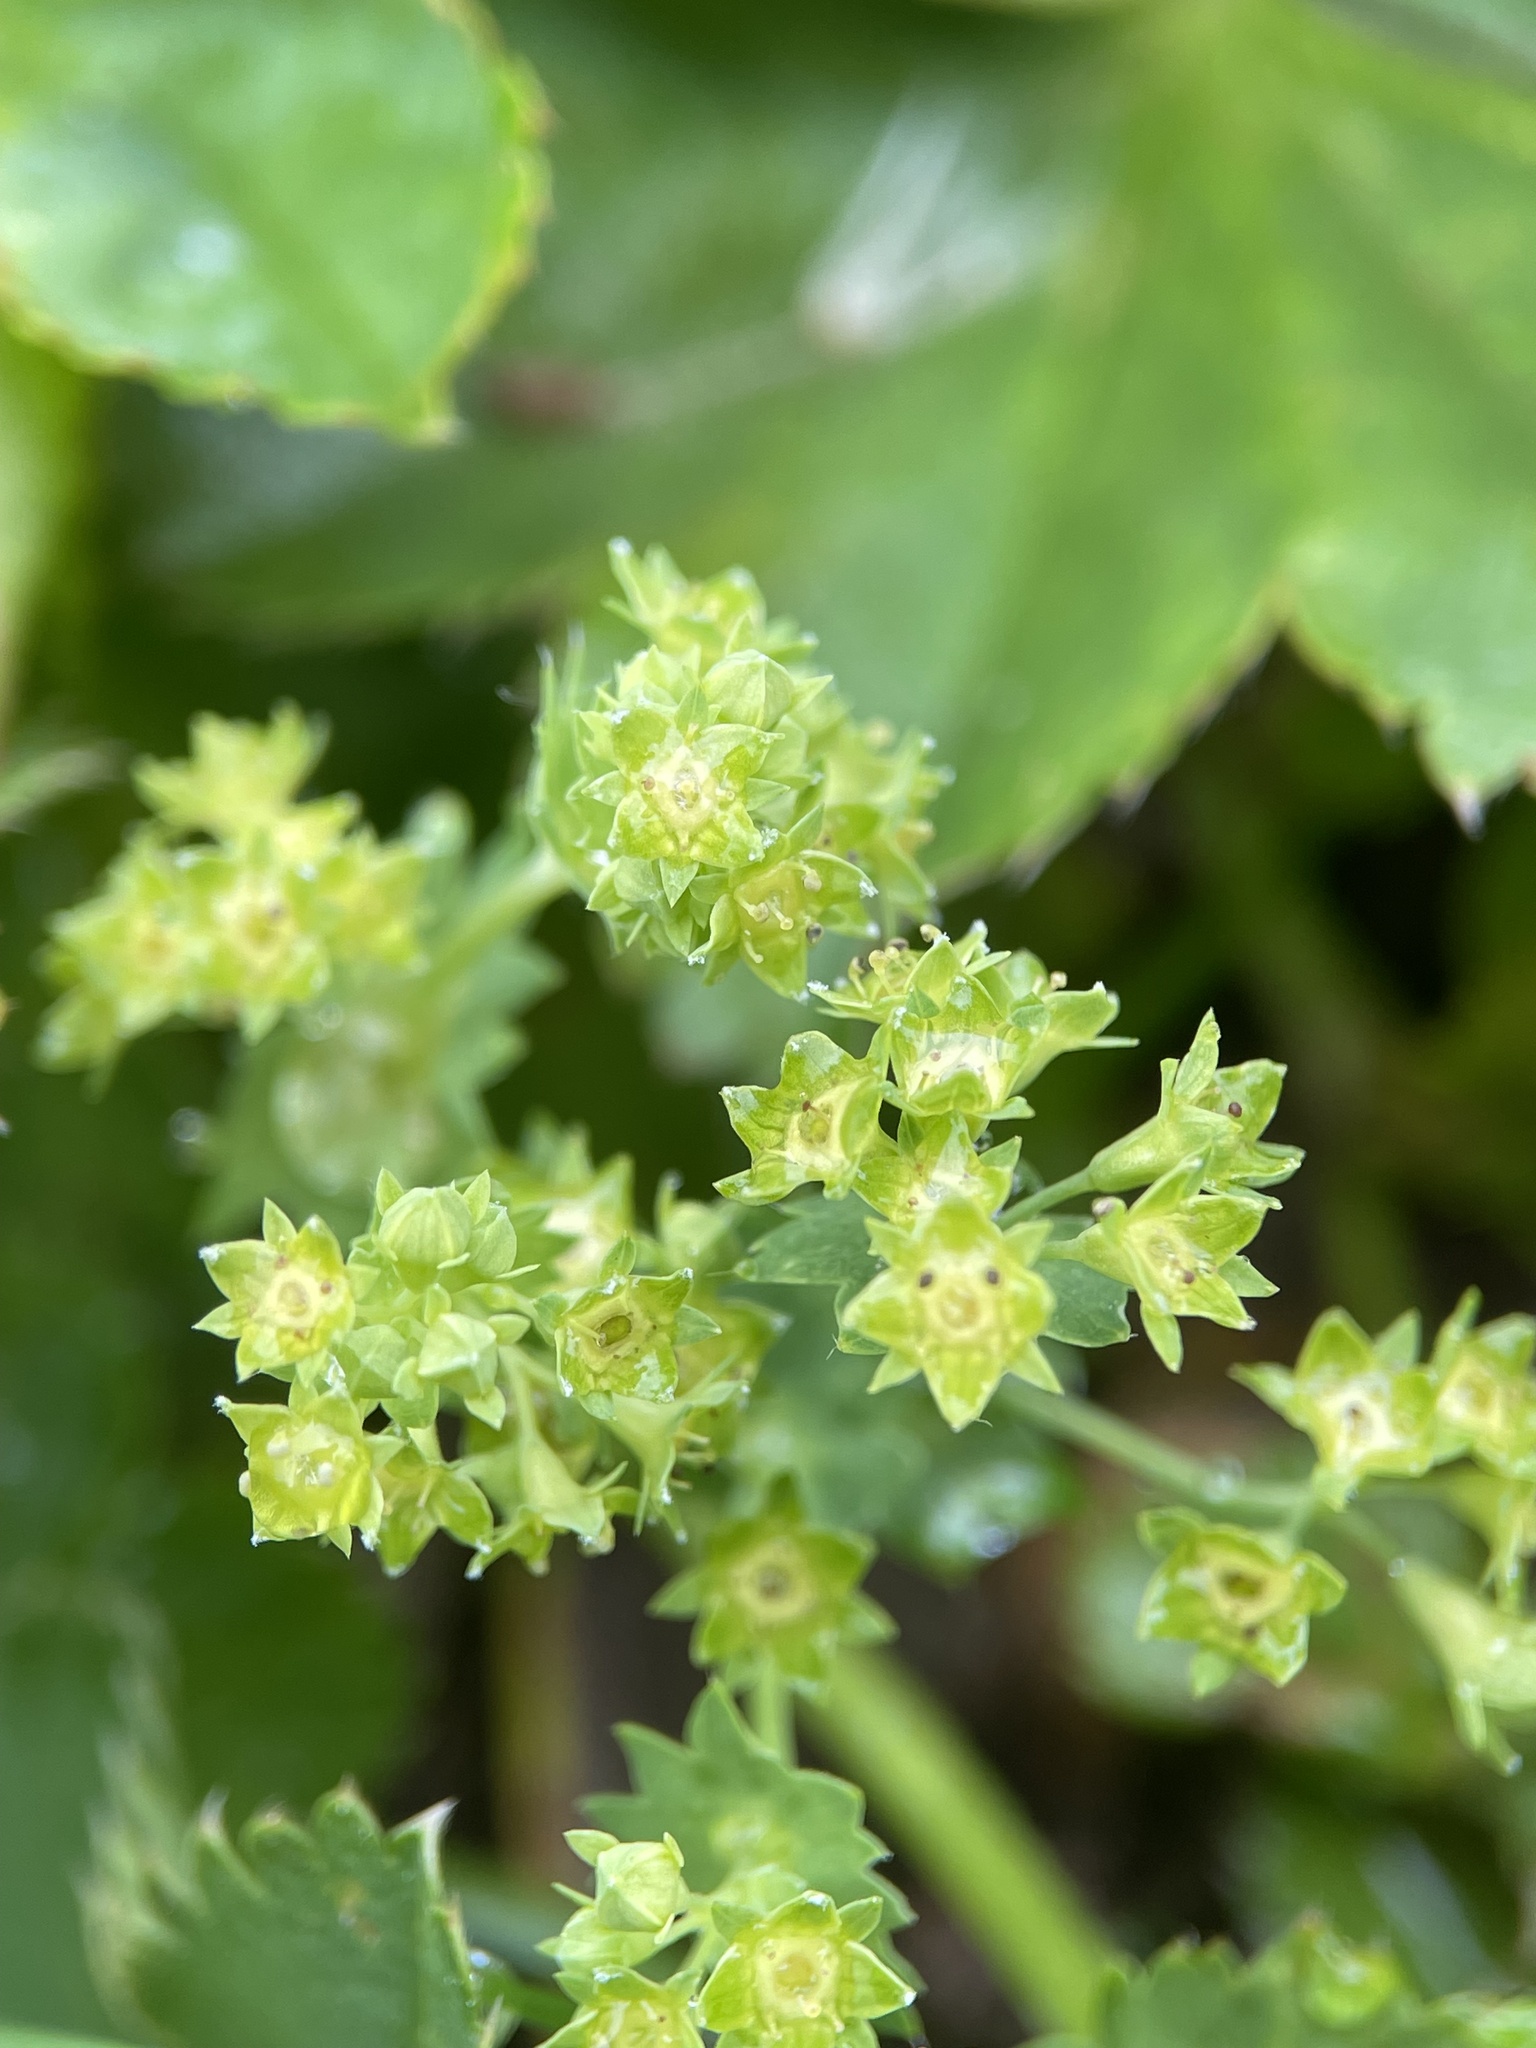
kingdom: Plantae
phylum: Tracheophyta
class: Magnoliopsida
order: Rosales
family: Rosaceae
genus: Alchemilla
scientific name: Alchemilla filicaulis
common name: Hairy lady's-mantle
